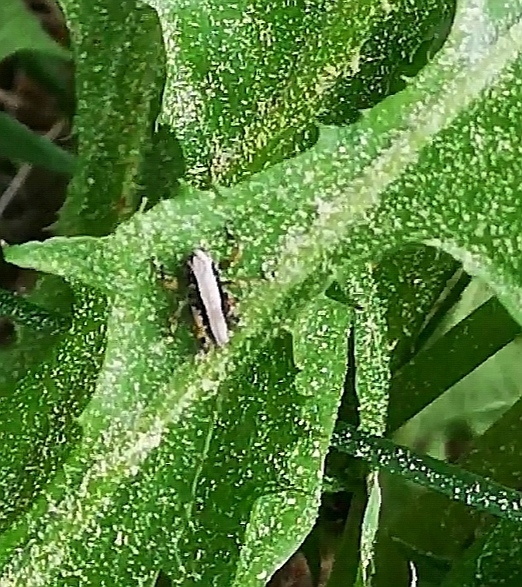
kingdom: Animalia
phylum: Arthropoda
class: Insecta
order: Orthoptera
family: Tettigoniidae
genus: Pholidoptera
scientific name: Pholidoptera griseoaptera
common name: Dark bush-cricket
